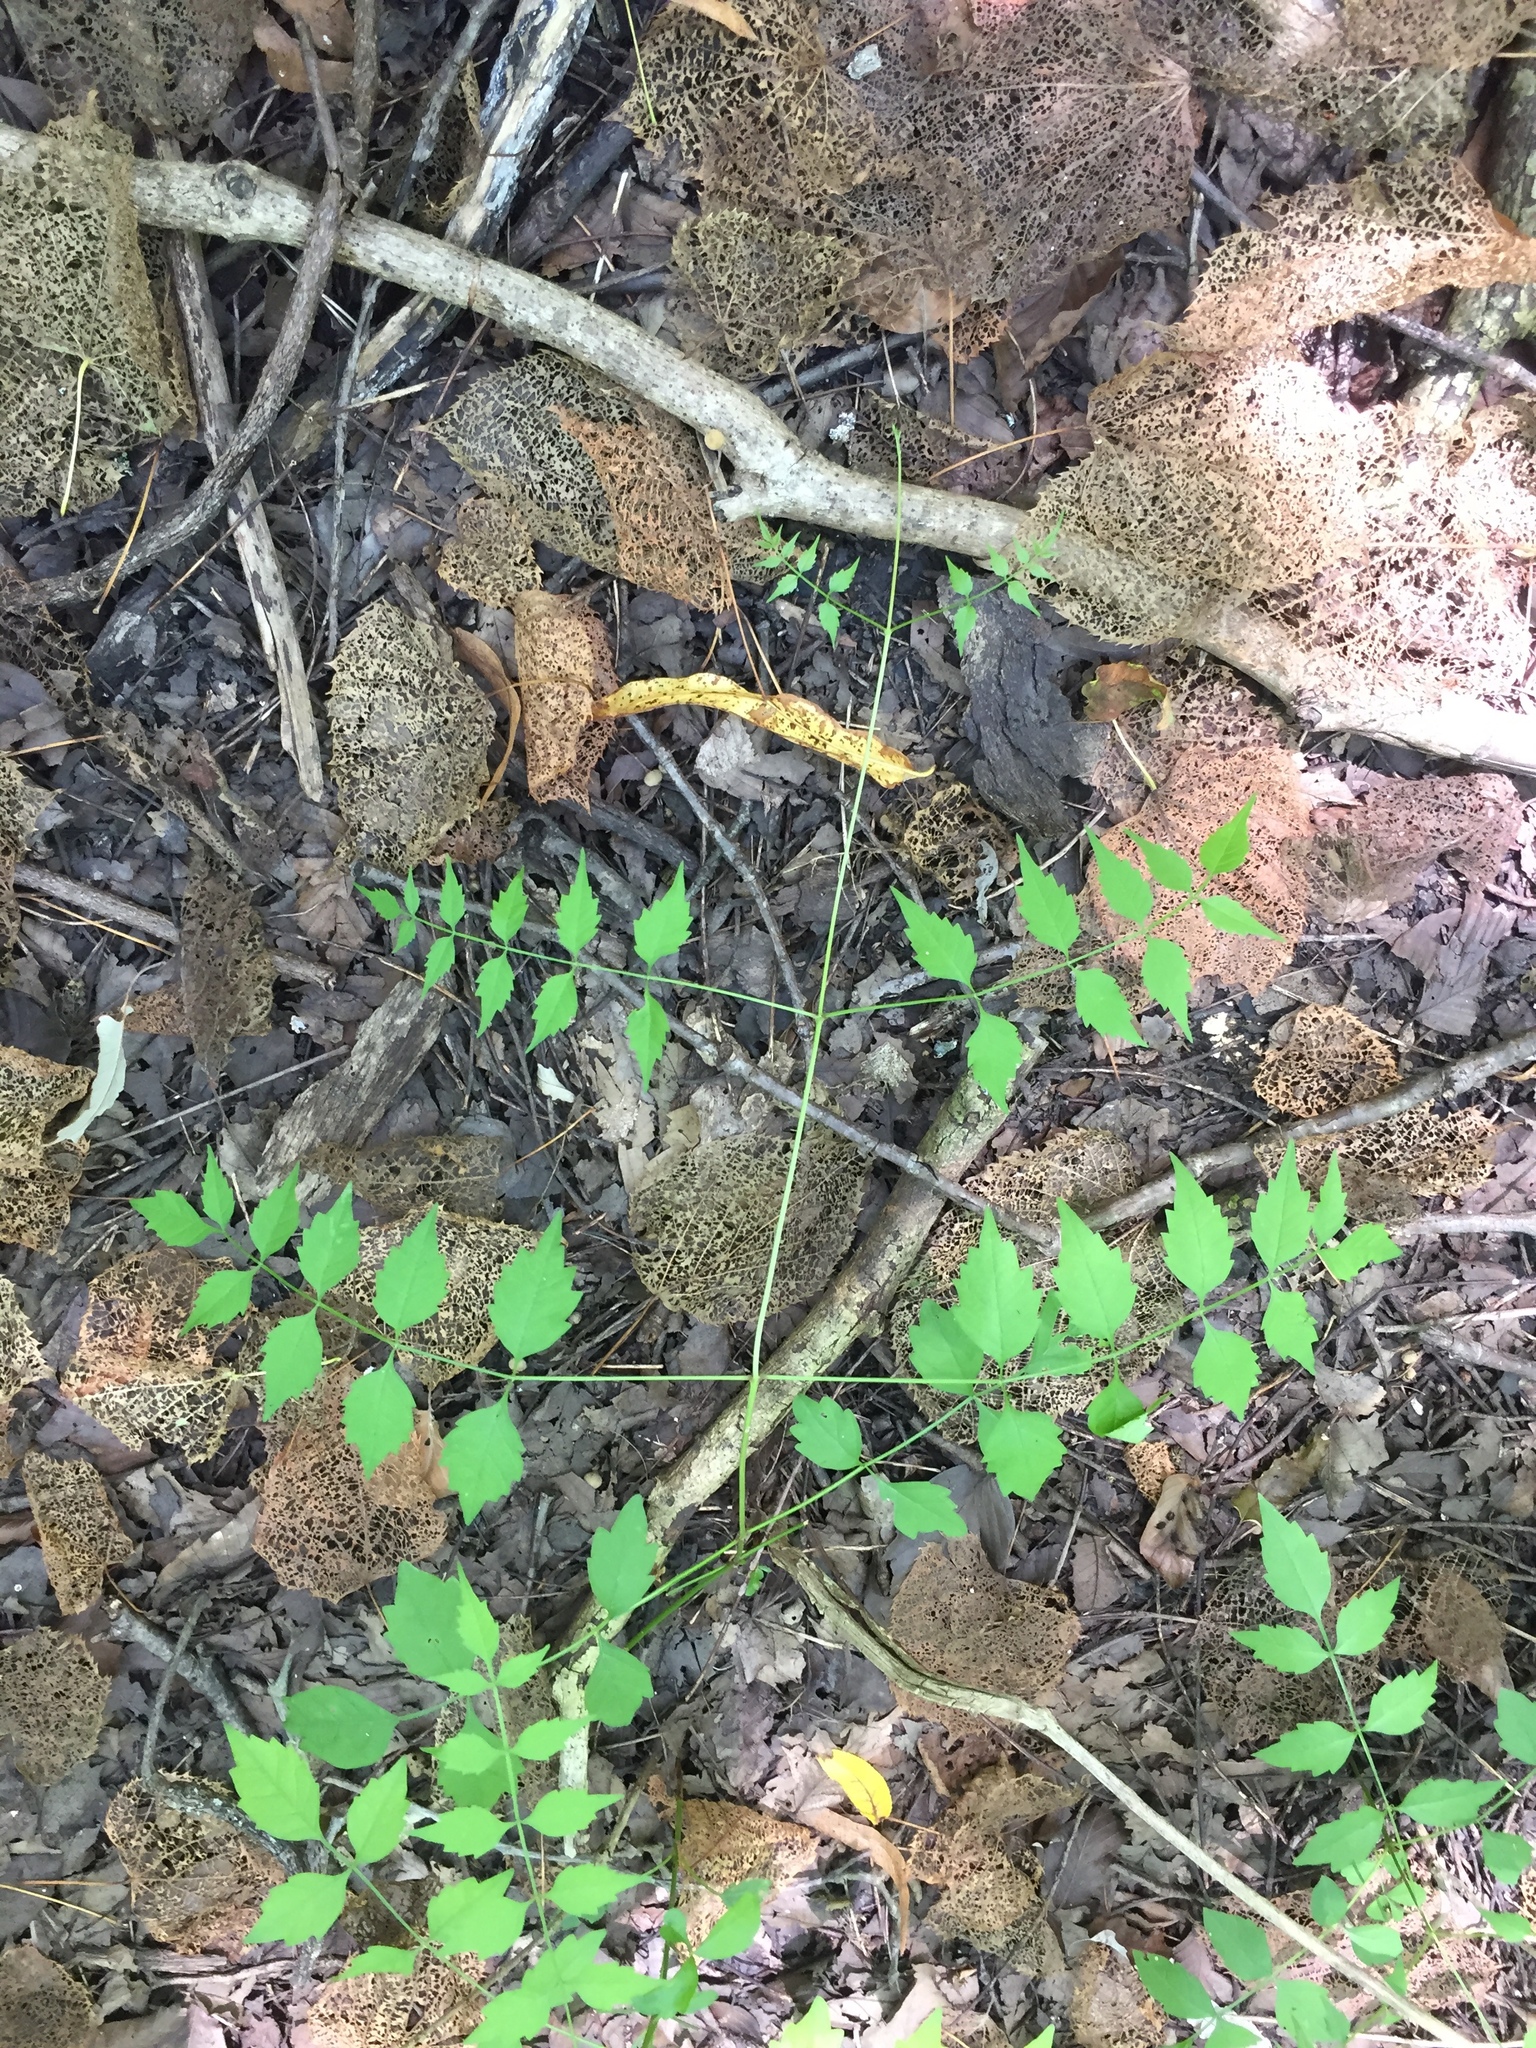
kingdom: Plantae
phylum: Tracheophyta
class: Magnoliopsida
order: Lamiales
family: Bignoniaceae
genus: Campsis
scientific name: Campsis radicans
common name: Trumpet-creeper
